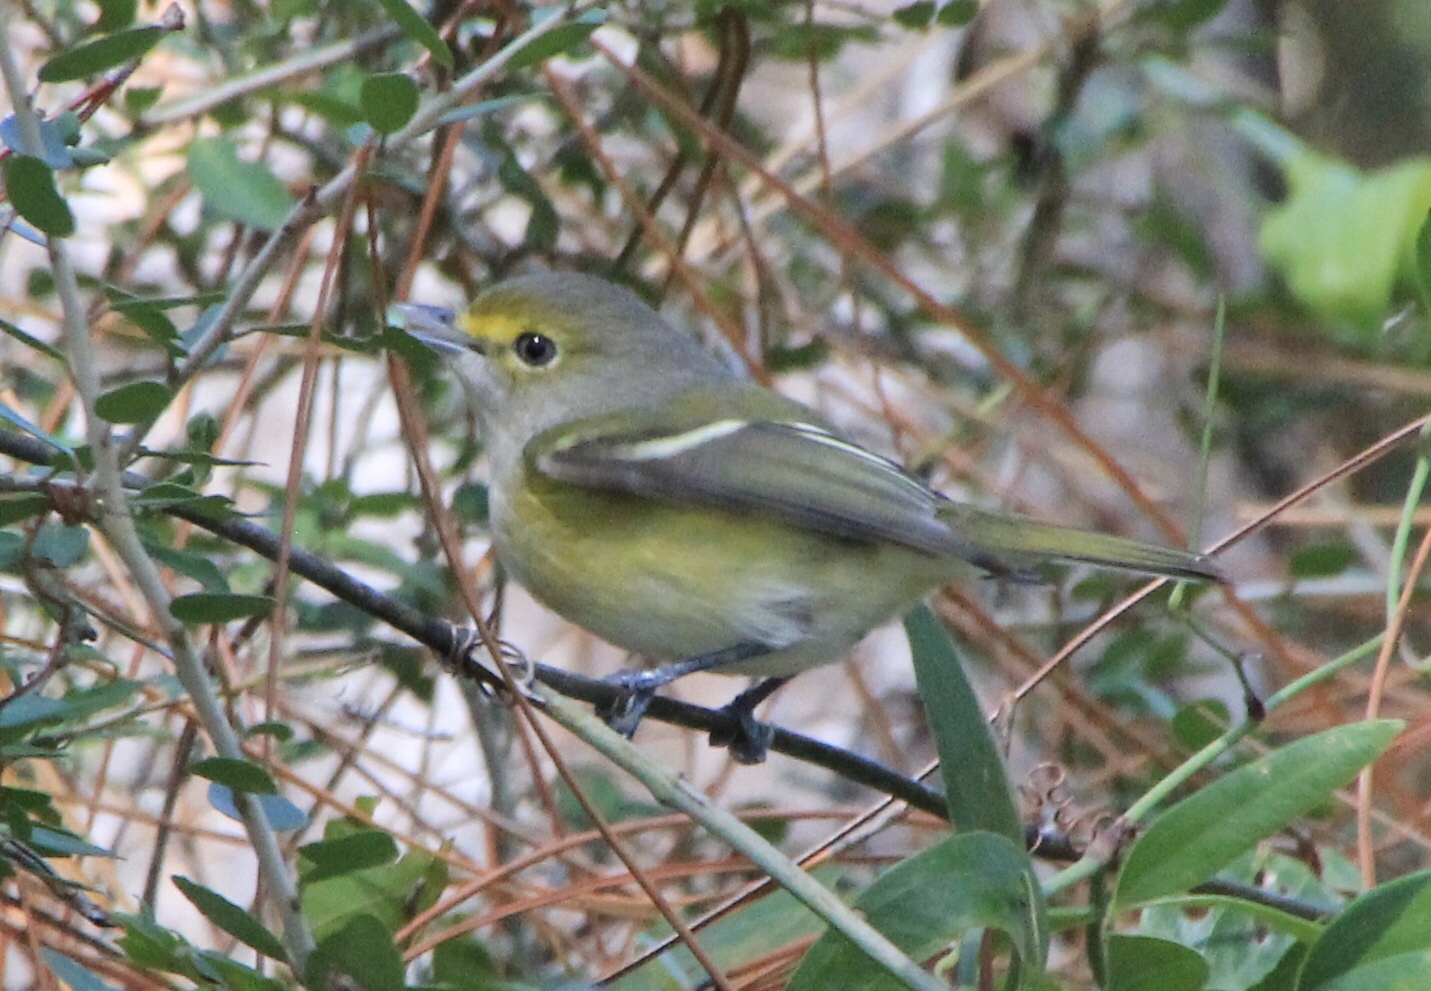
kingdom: Animalia
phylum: Chordata
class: Aves
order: Passeriformes
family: Vireonidae
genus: Vireo
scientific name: Vireo griseus
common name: White-eyed vireo
